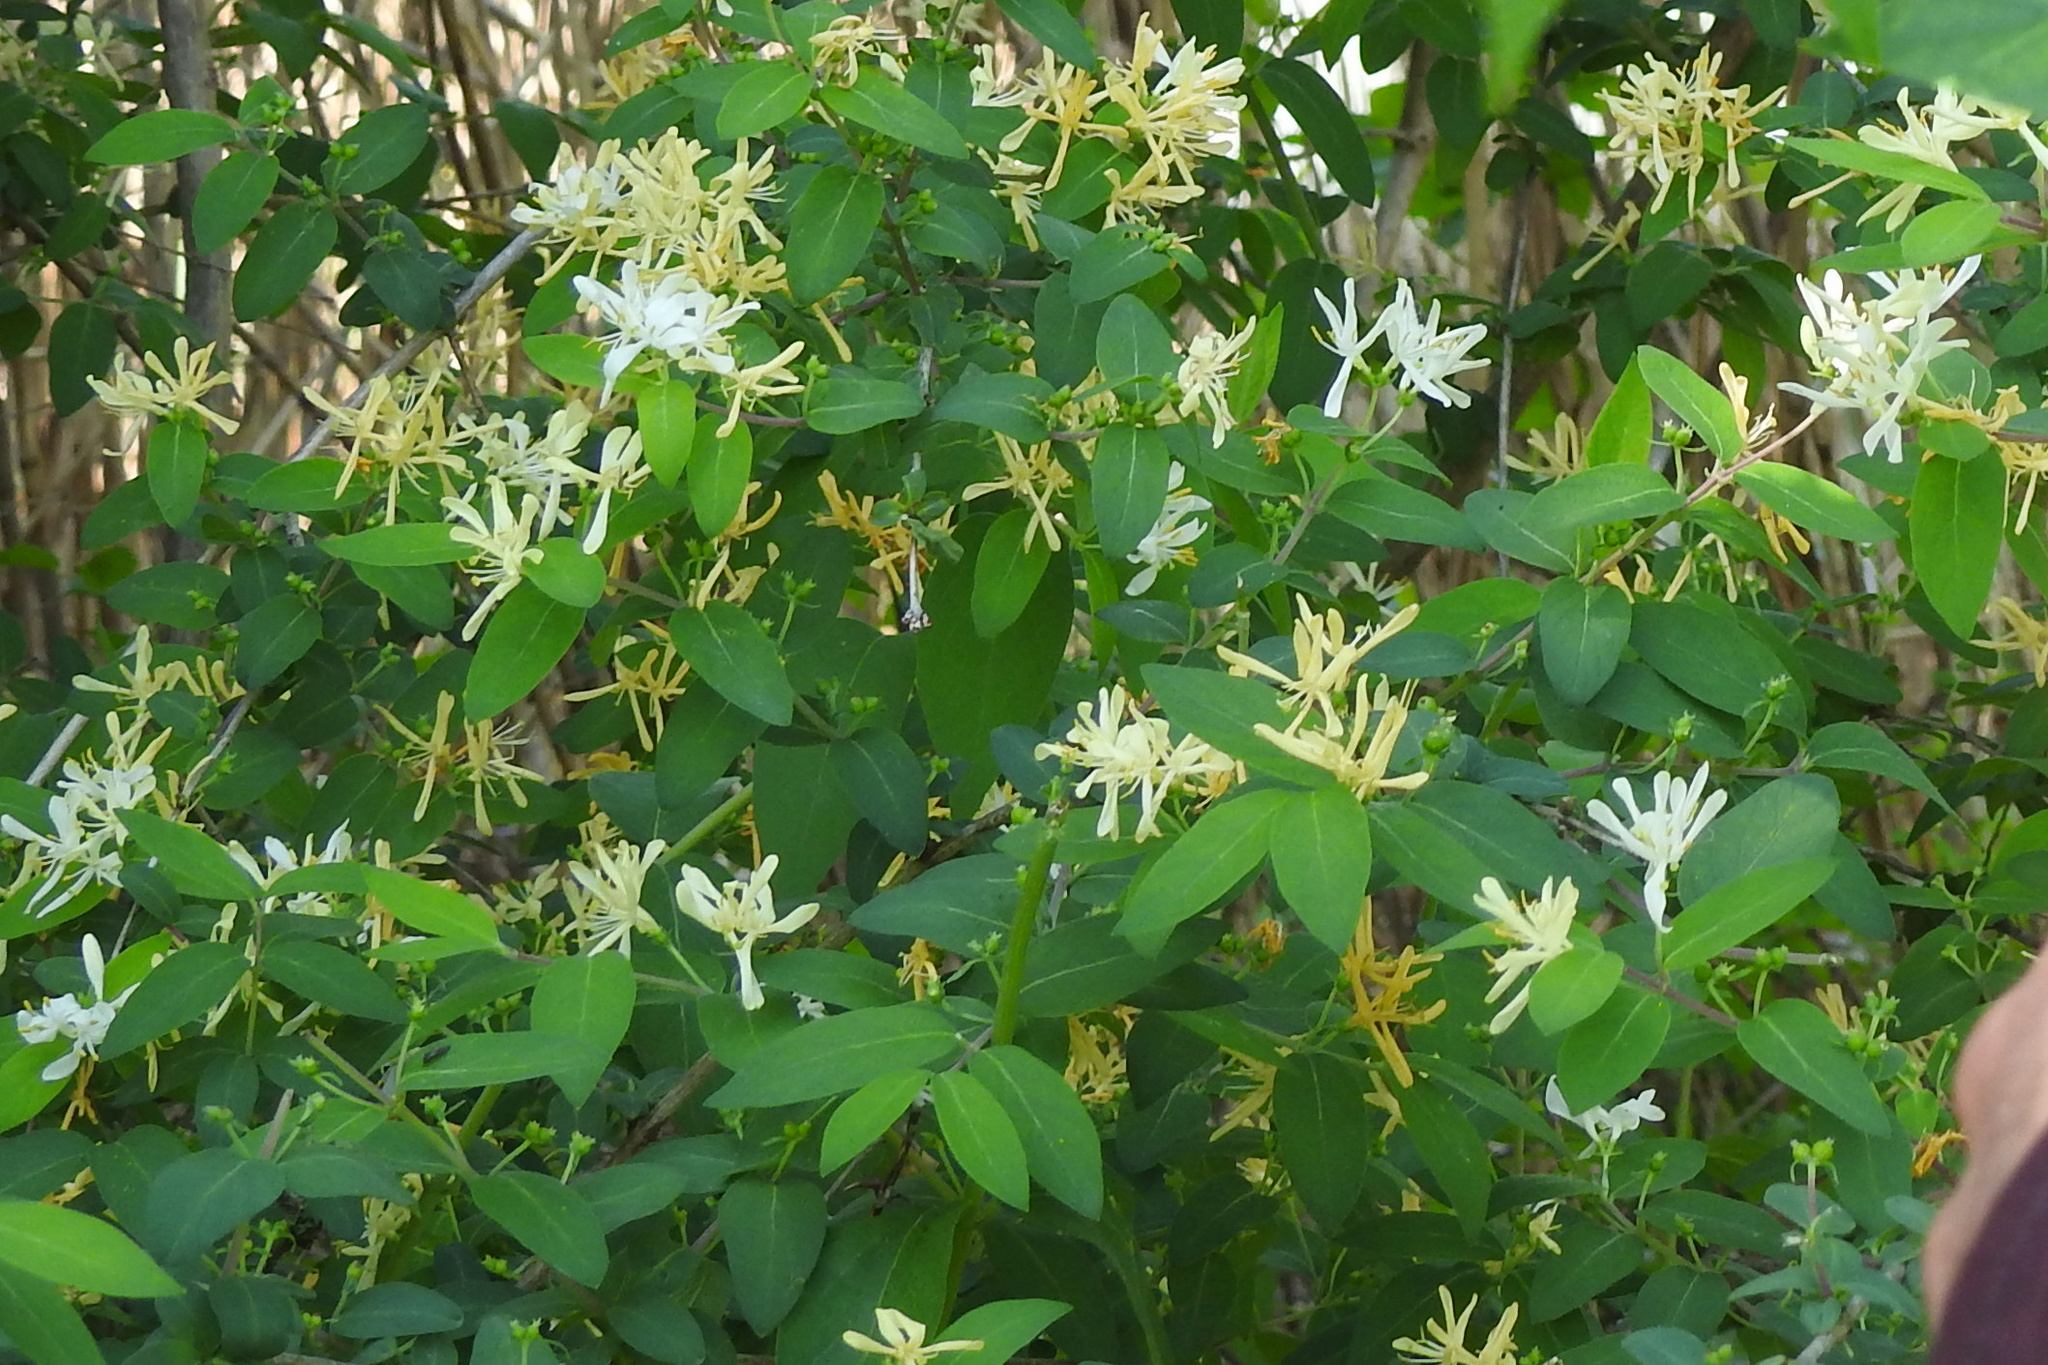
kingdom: Plantae
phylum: Tracheophyta
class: Magnoliopsida
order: Dipsacales
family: Caprifoliaceae
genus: Lonicera
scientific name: Lonicera morrowii
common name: Morrow's honeysuckle
